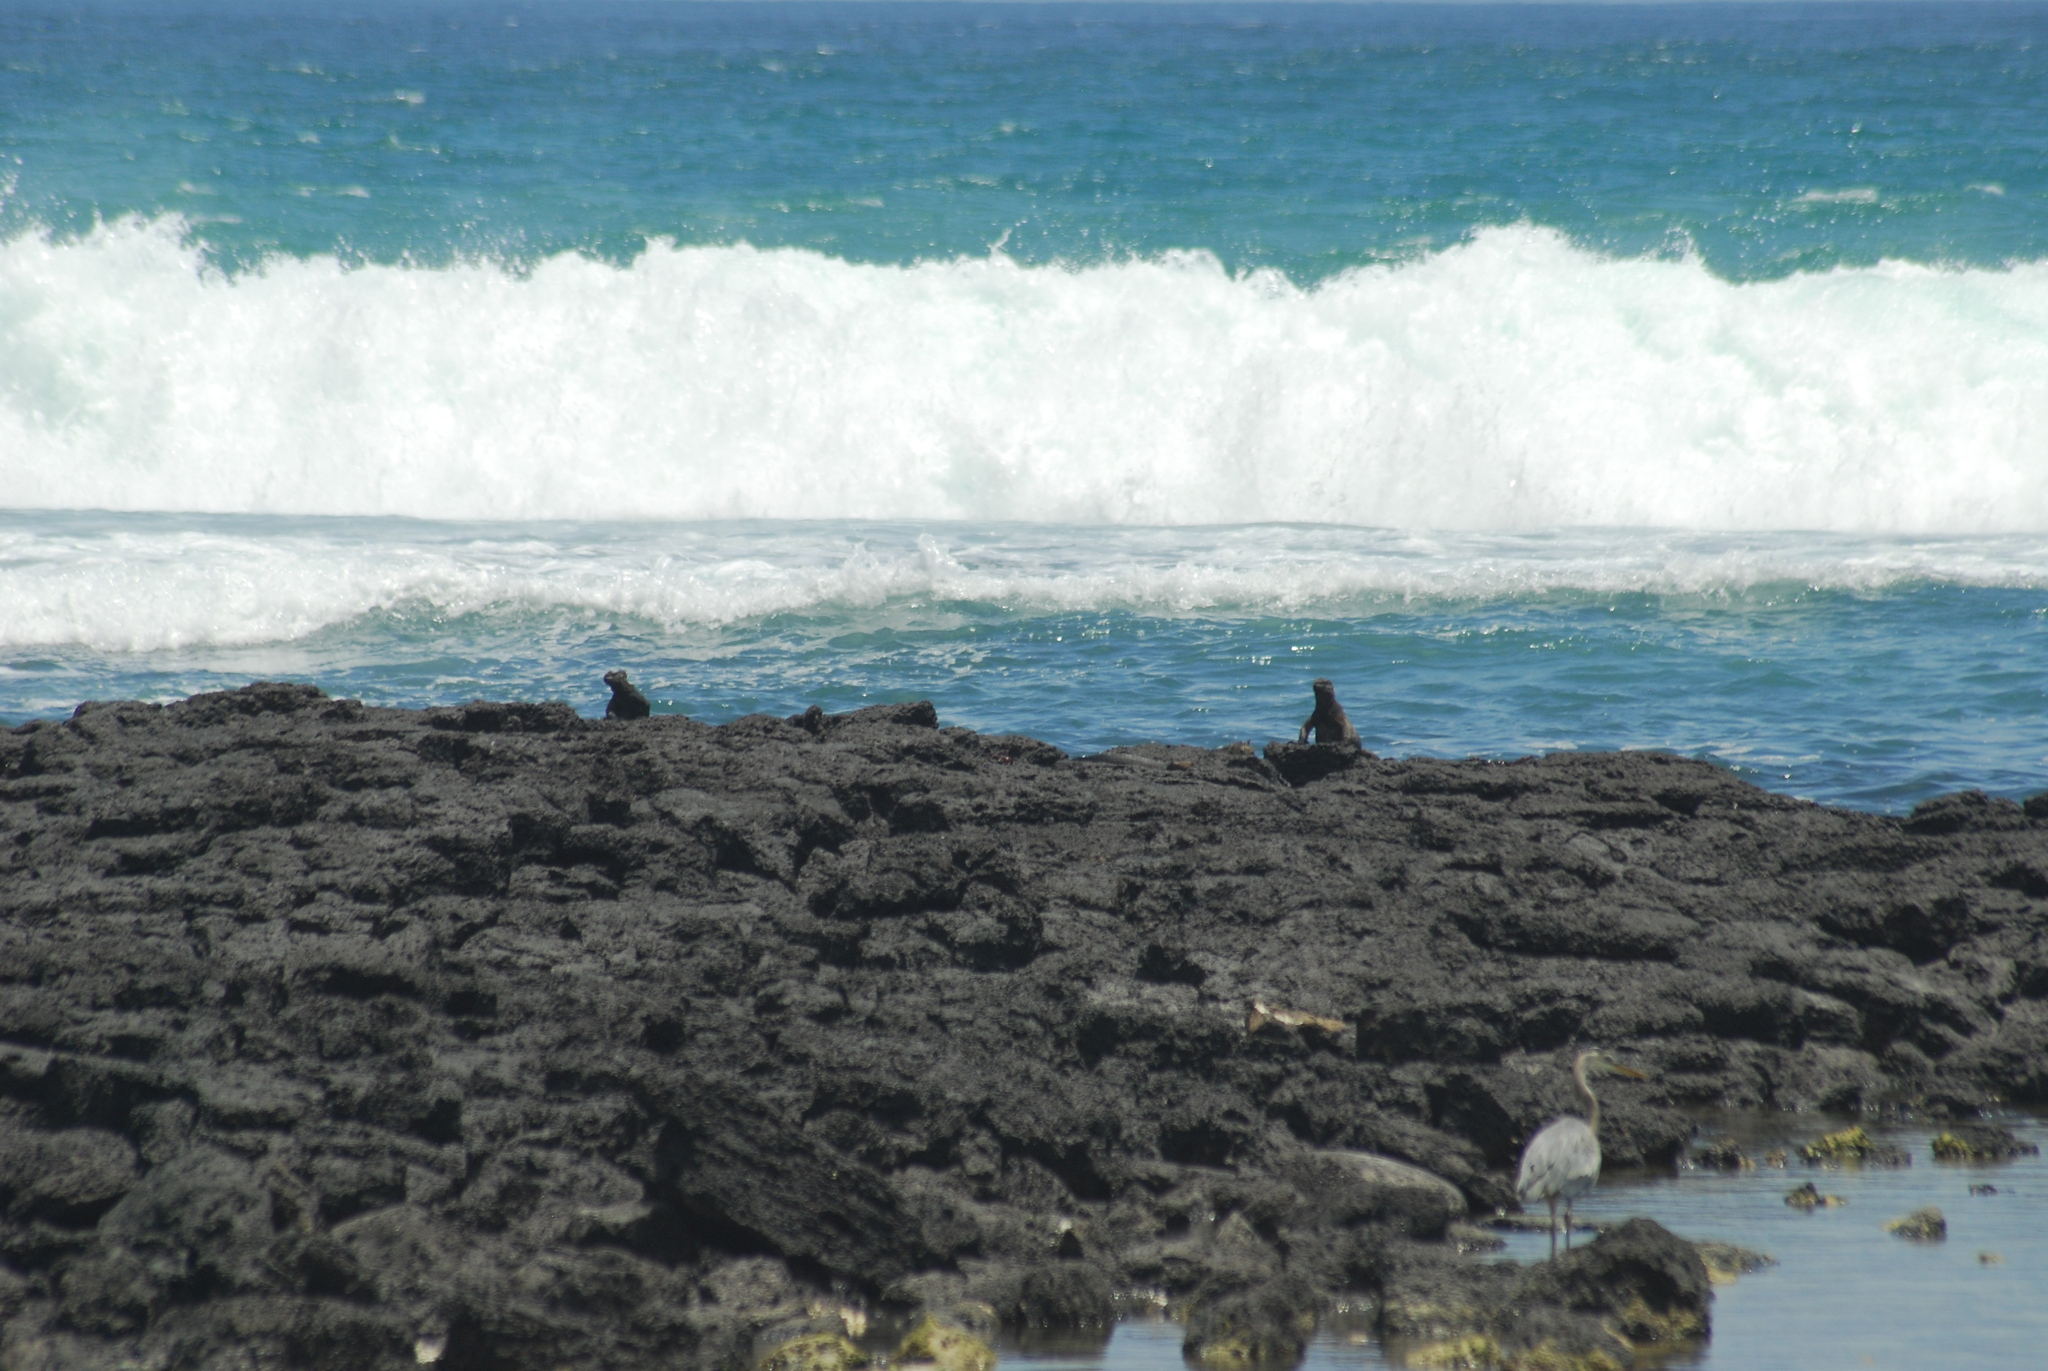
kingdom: Animalia
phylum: Chordata
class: Squamata
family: Iguanidae
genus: Amblyrhynchus
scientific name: Amblyrhynchus cristatus
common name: Marine iguana
